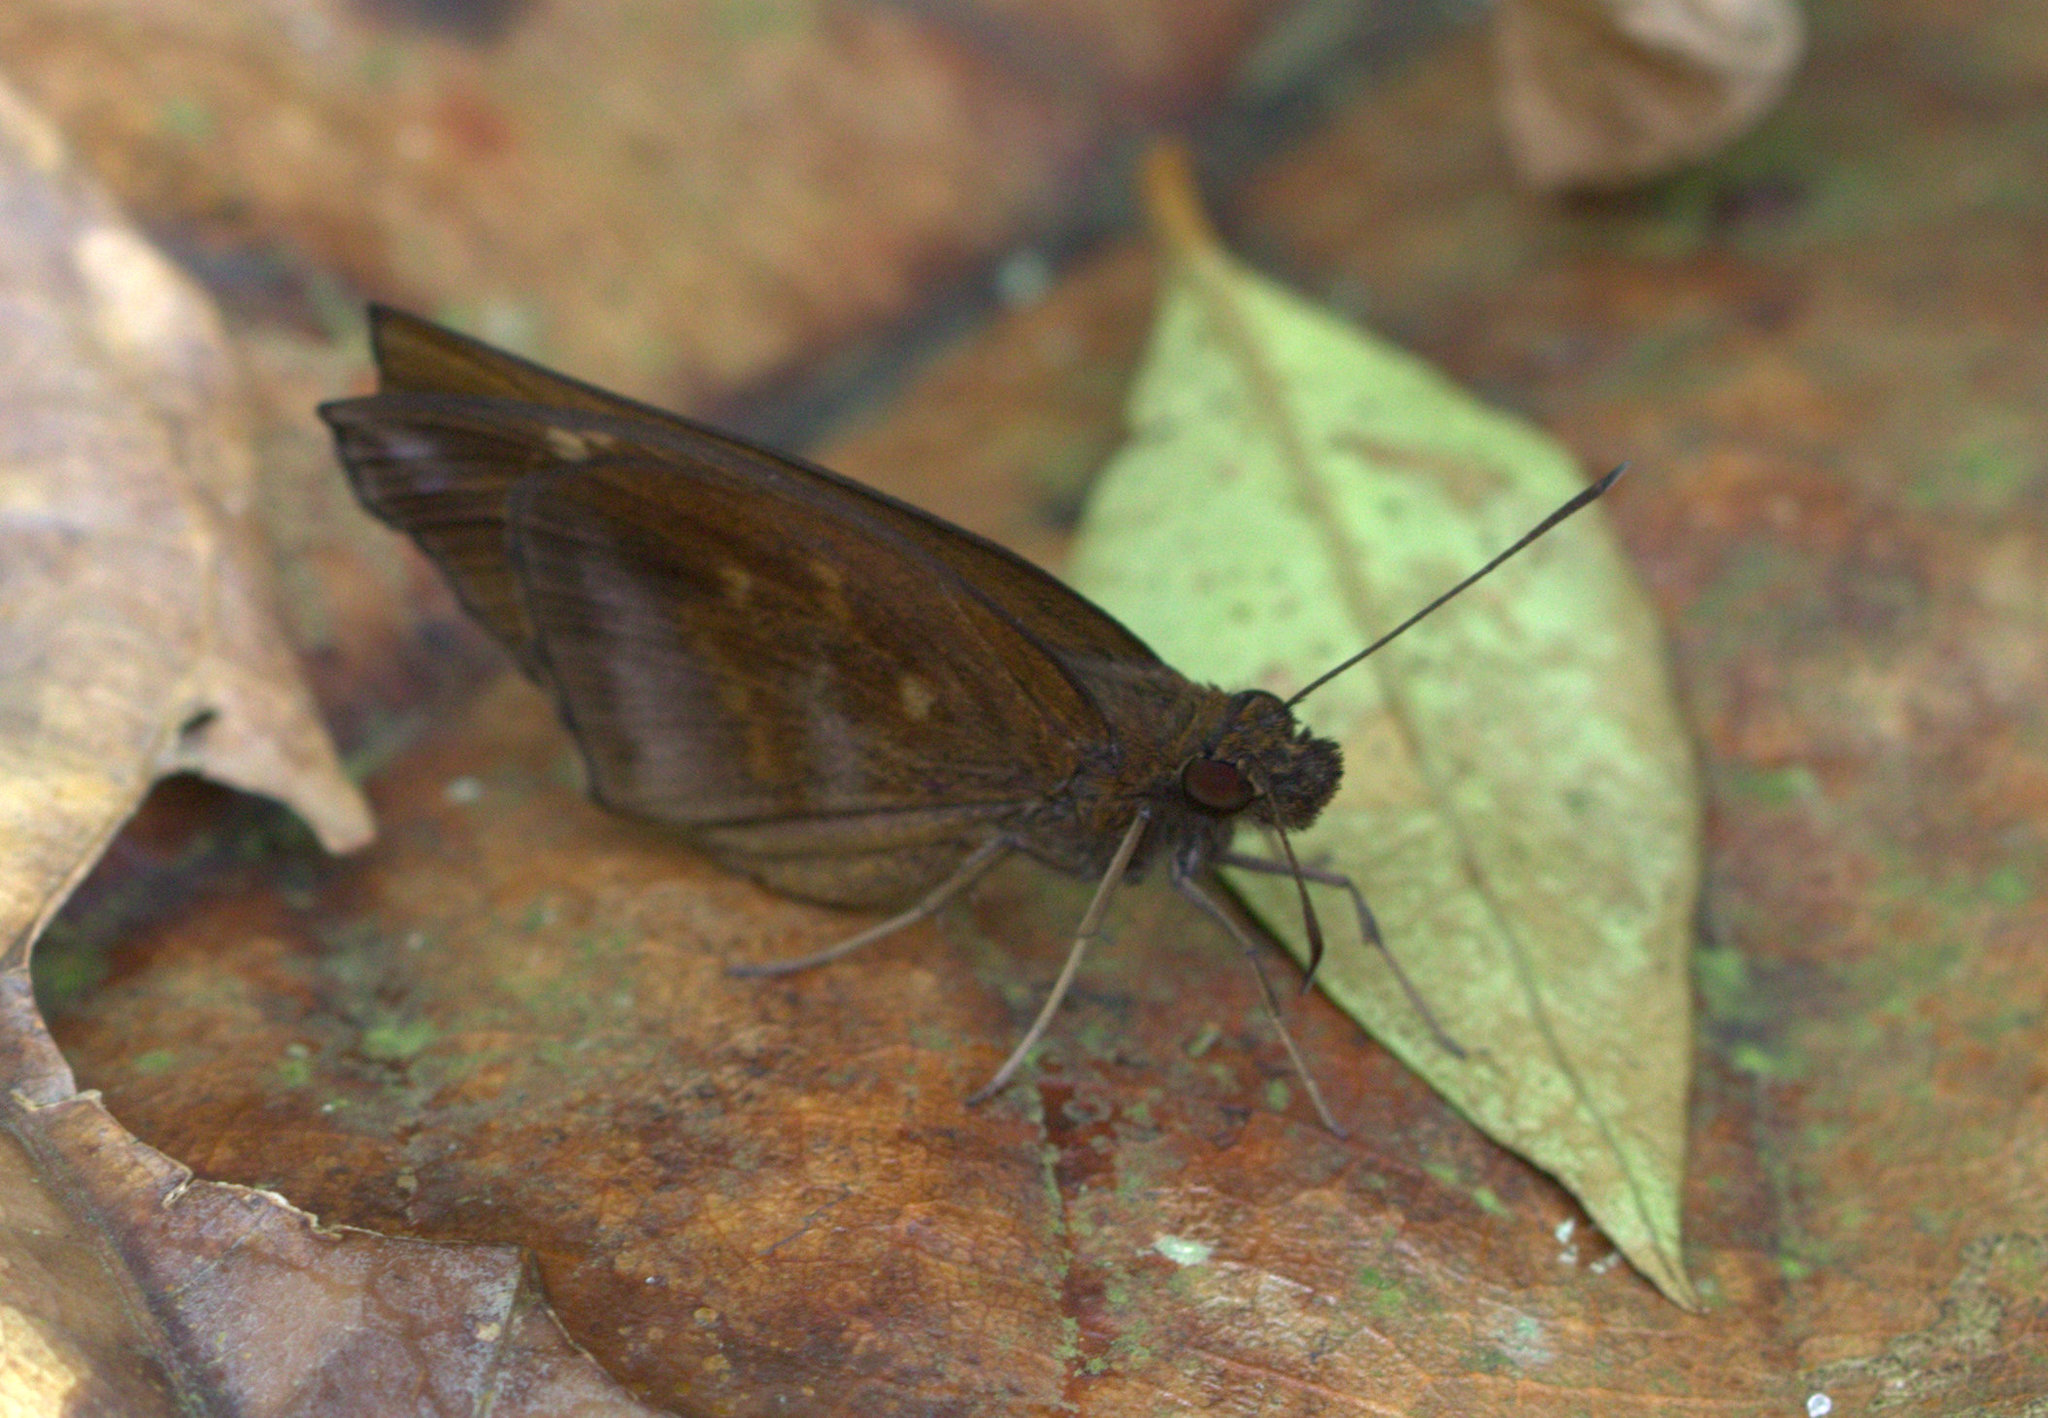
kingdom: Animalia
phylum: Arthropoda
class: Insecta
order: Lepidoptera
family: Hesperiidae
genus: Psolos
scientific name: Psolos fuligo
